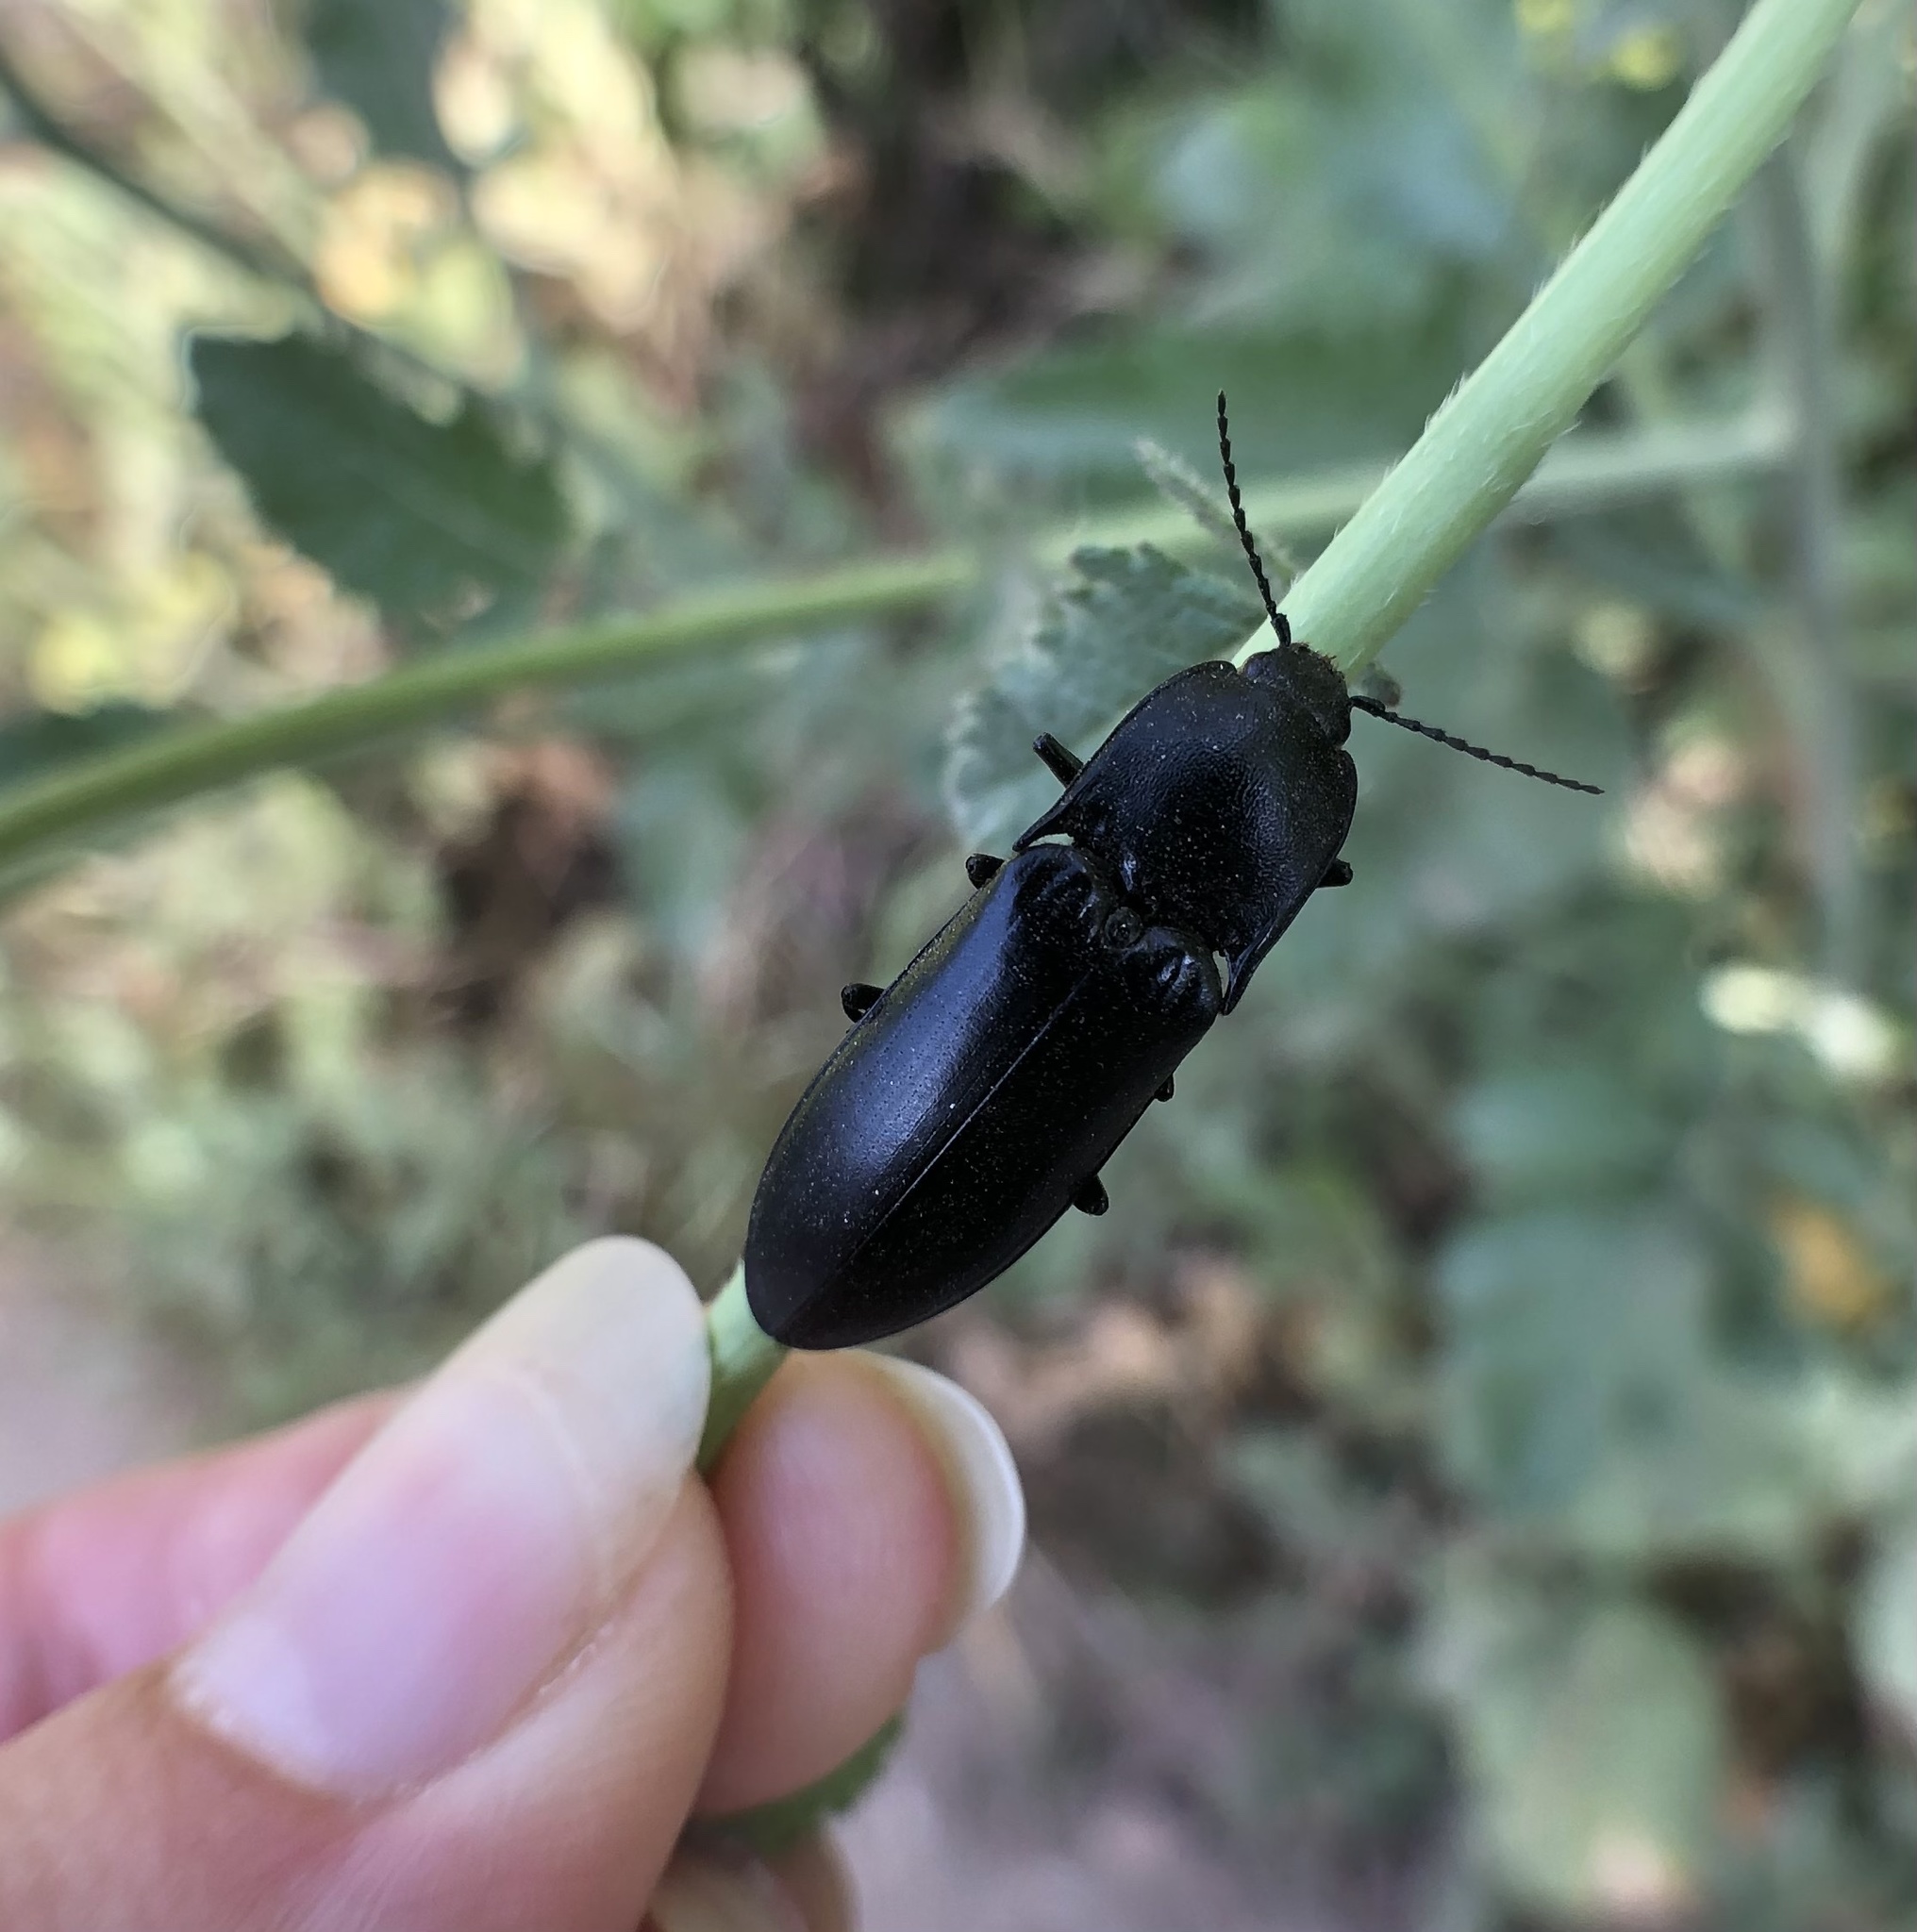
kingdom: Animalia
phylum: Arthropoda
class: Insecta
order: Coleoptera
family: Elateridae
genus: Melanactes
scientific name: Melanactes
